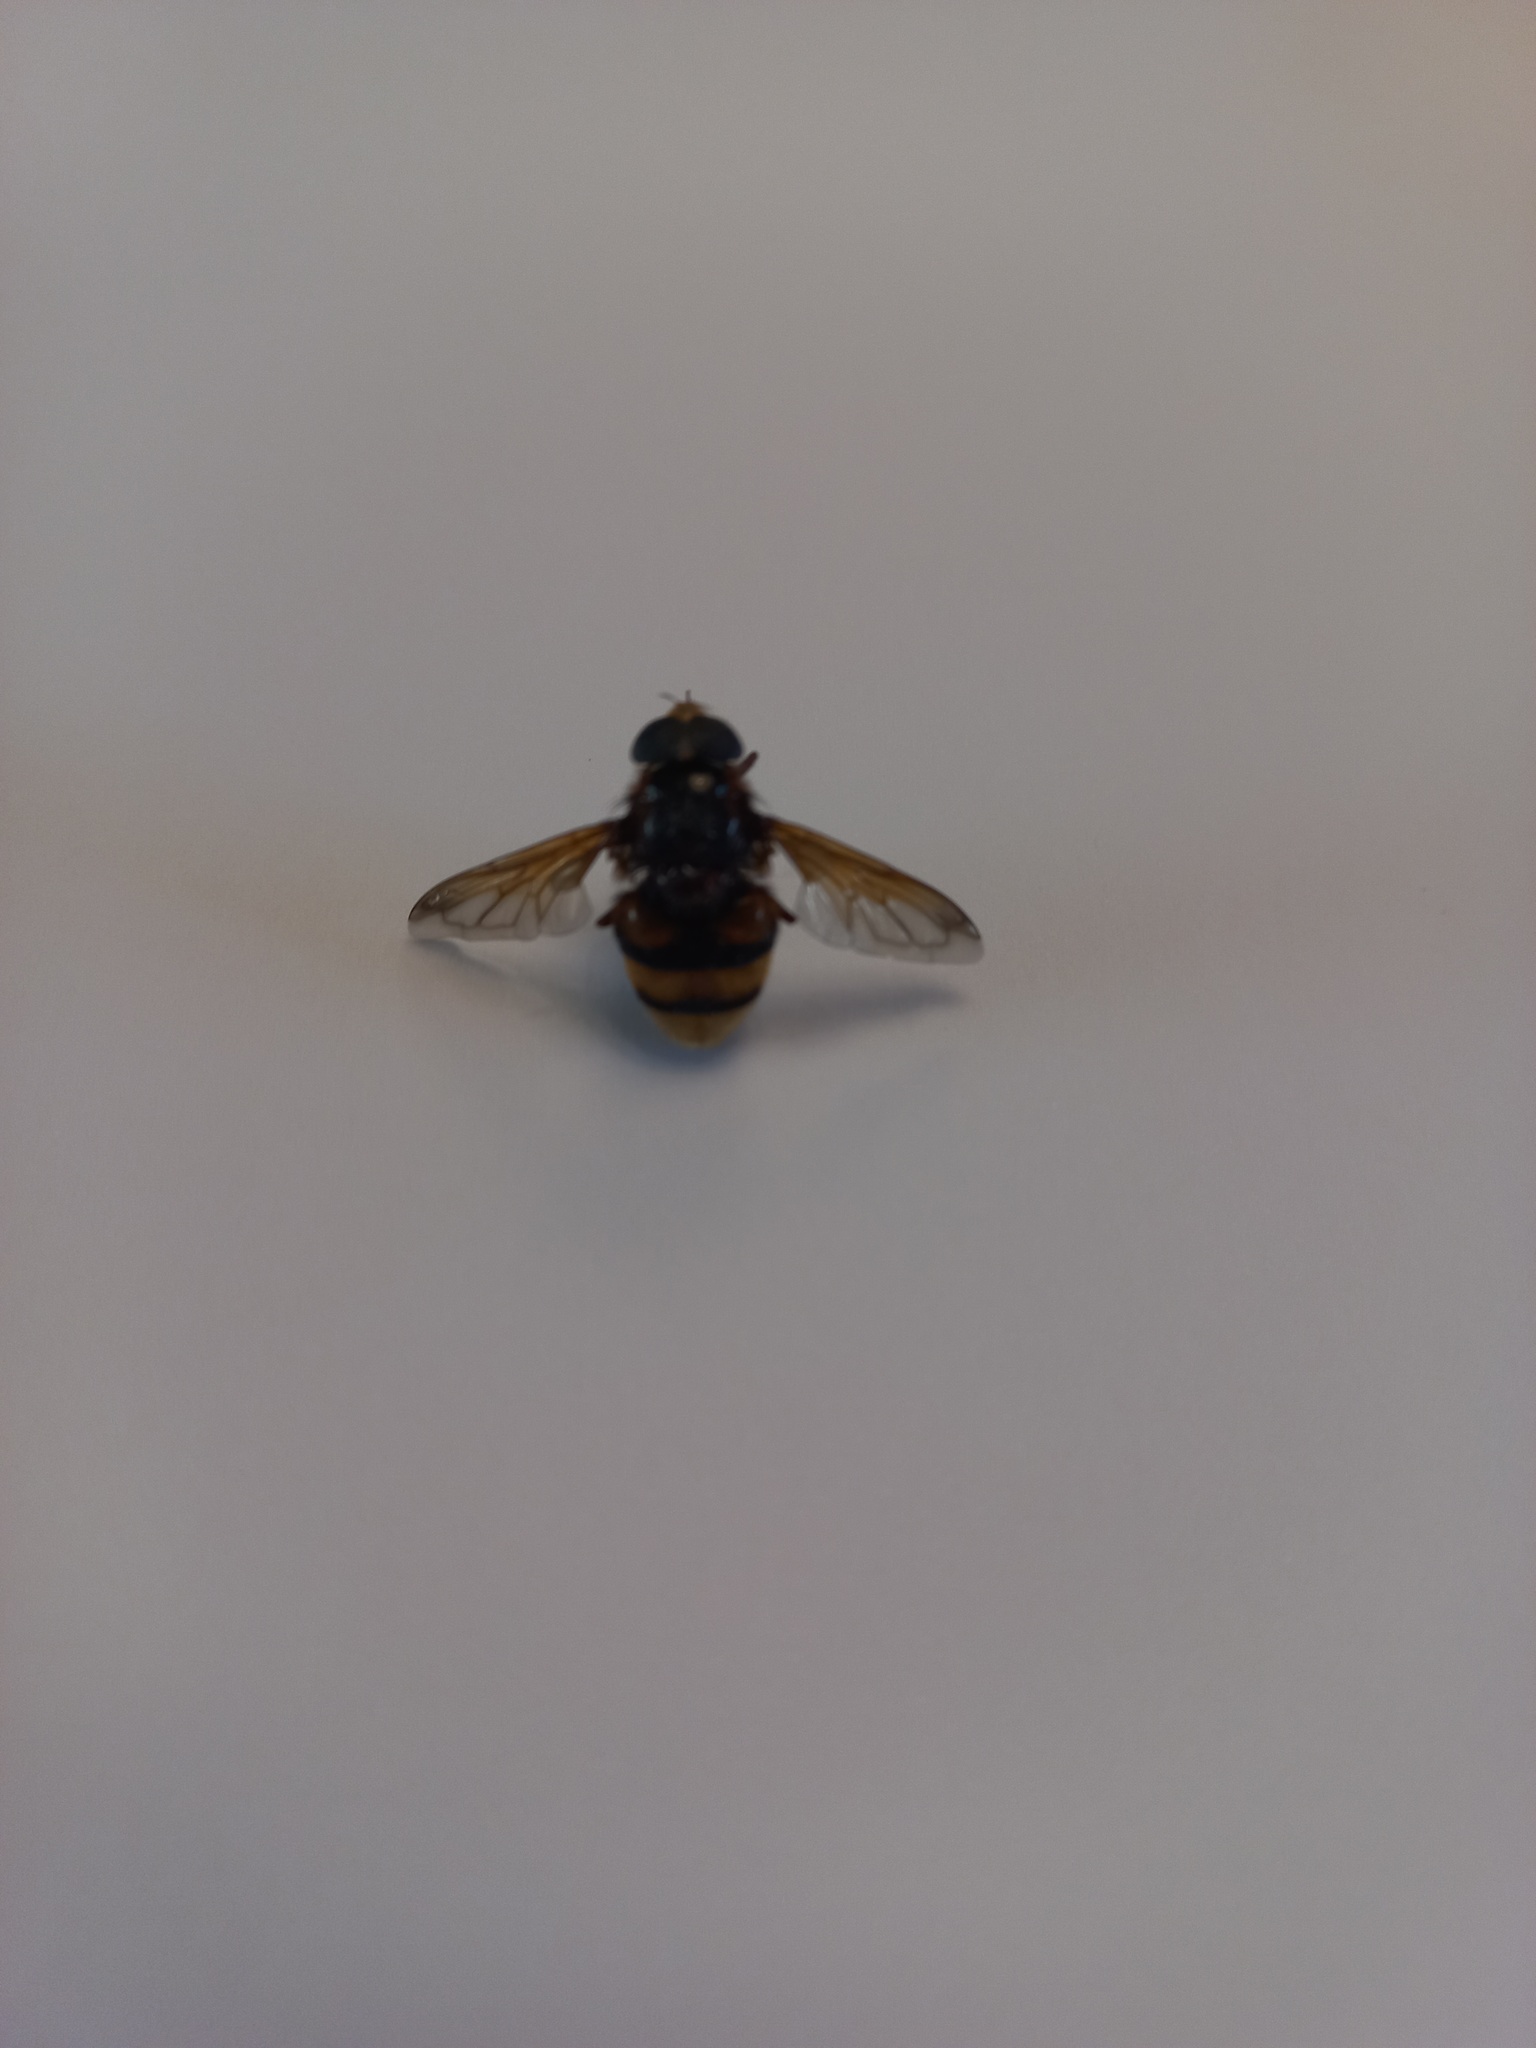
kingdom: Animalia
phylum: Arthropoda
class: Insecta
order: Diptera
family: Syrphidae
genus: Volucella
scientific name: Volucella zonaria
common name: Hornet hoverfly
